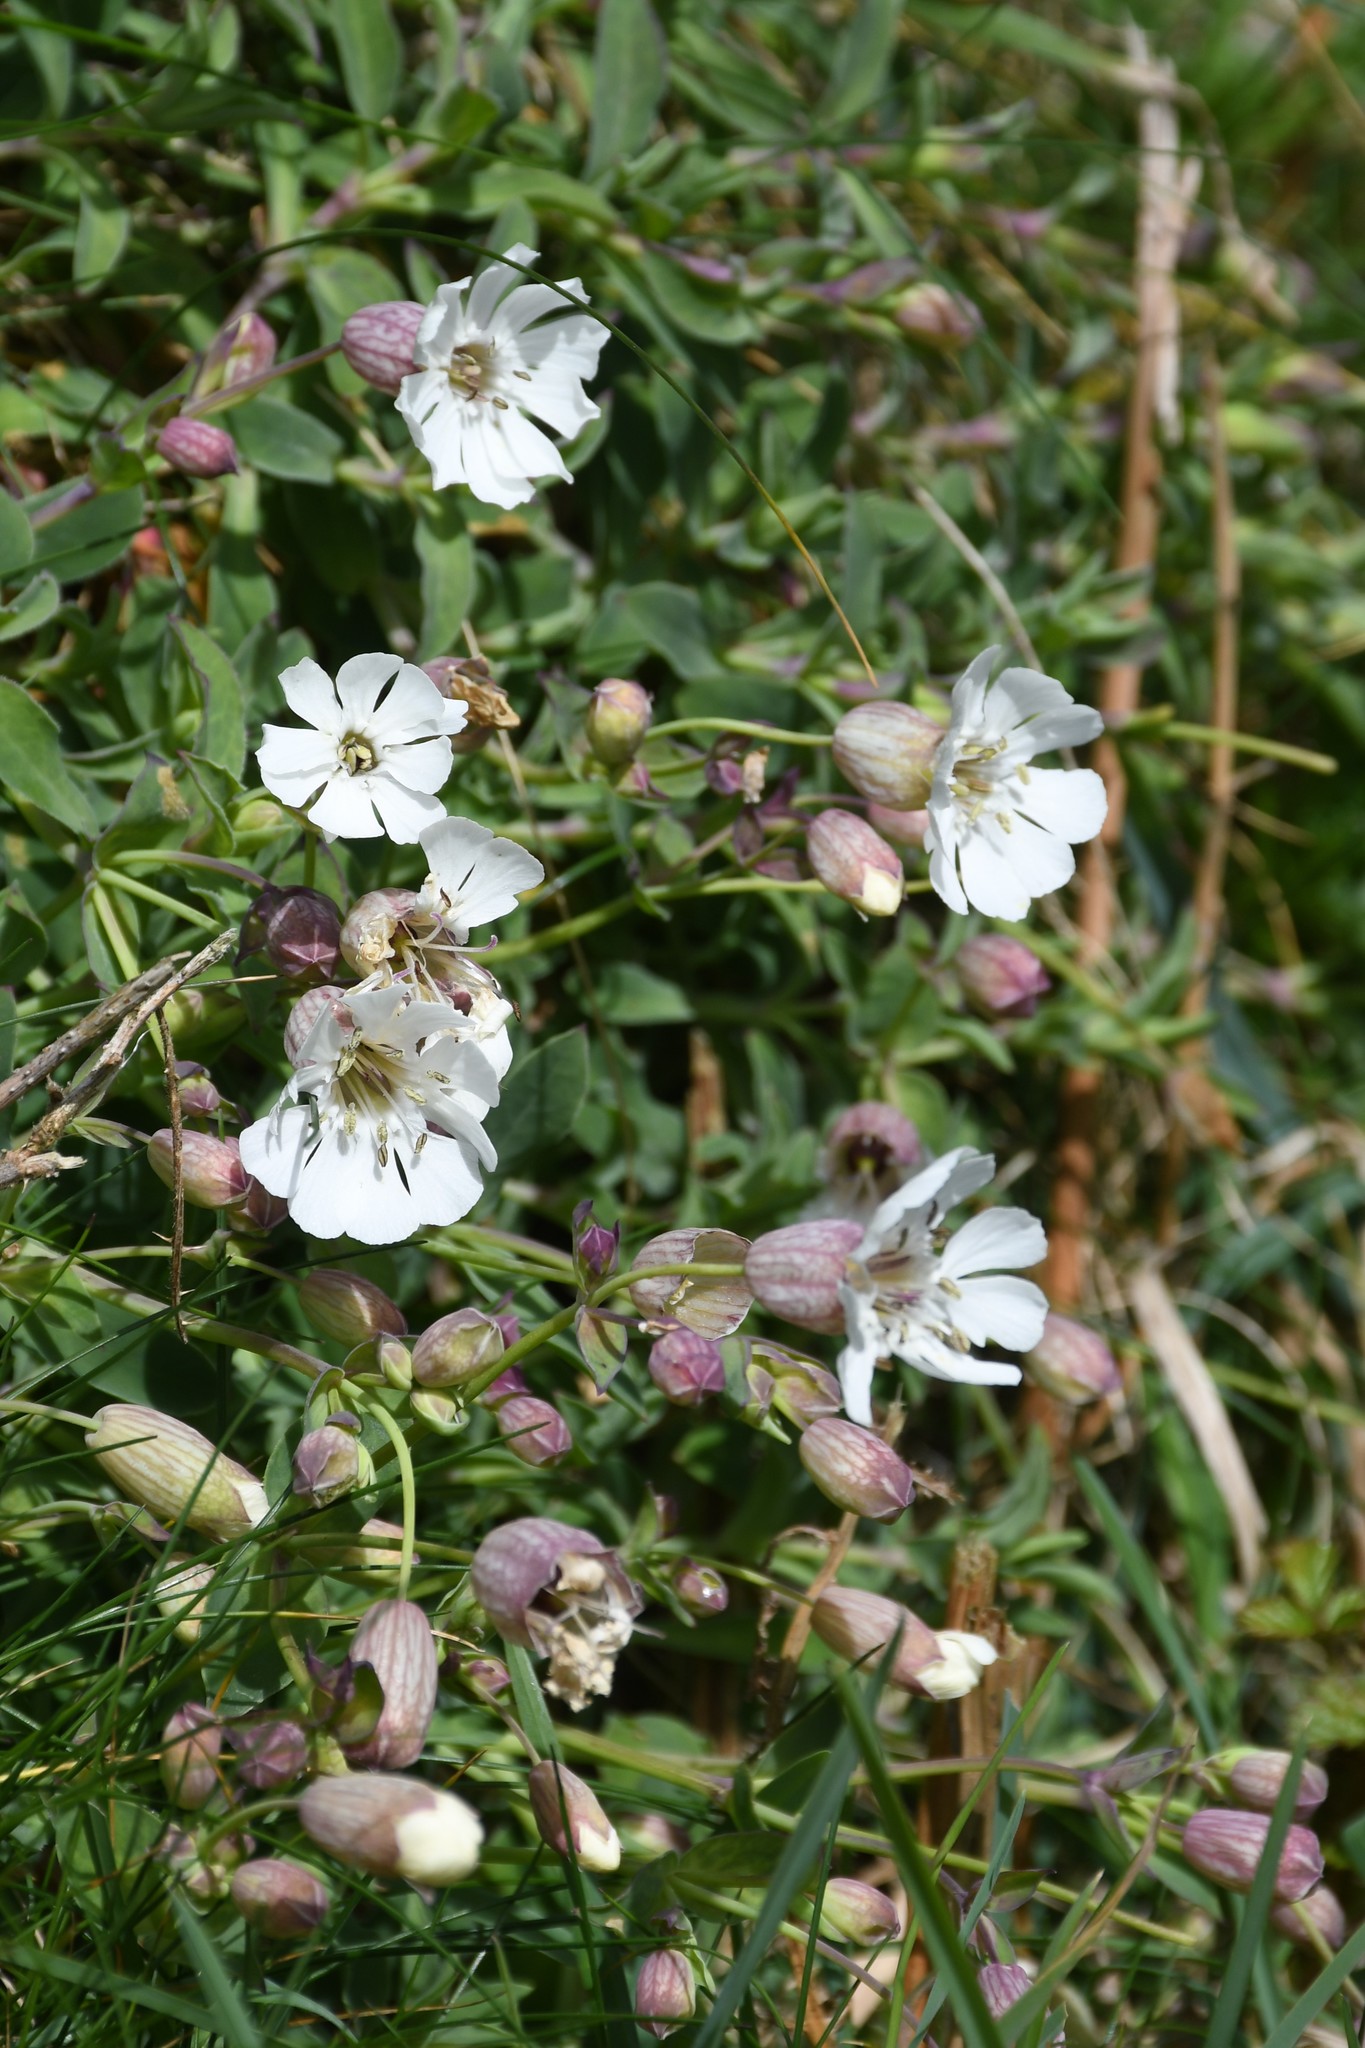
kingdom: Plantae
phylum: Tracheophyta
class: Magnoliopsida
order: Caryophyllales
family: Caryophyllaceae
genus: Silene
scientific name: Silene uniflora
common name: Sea campion
